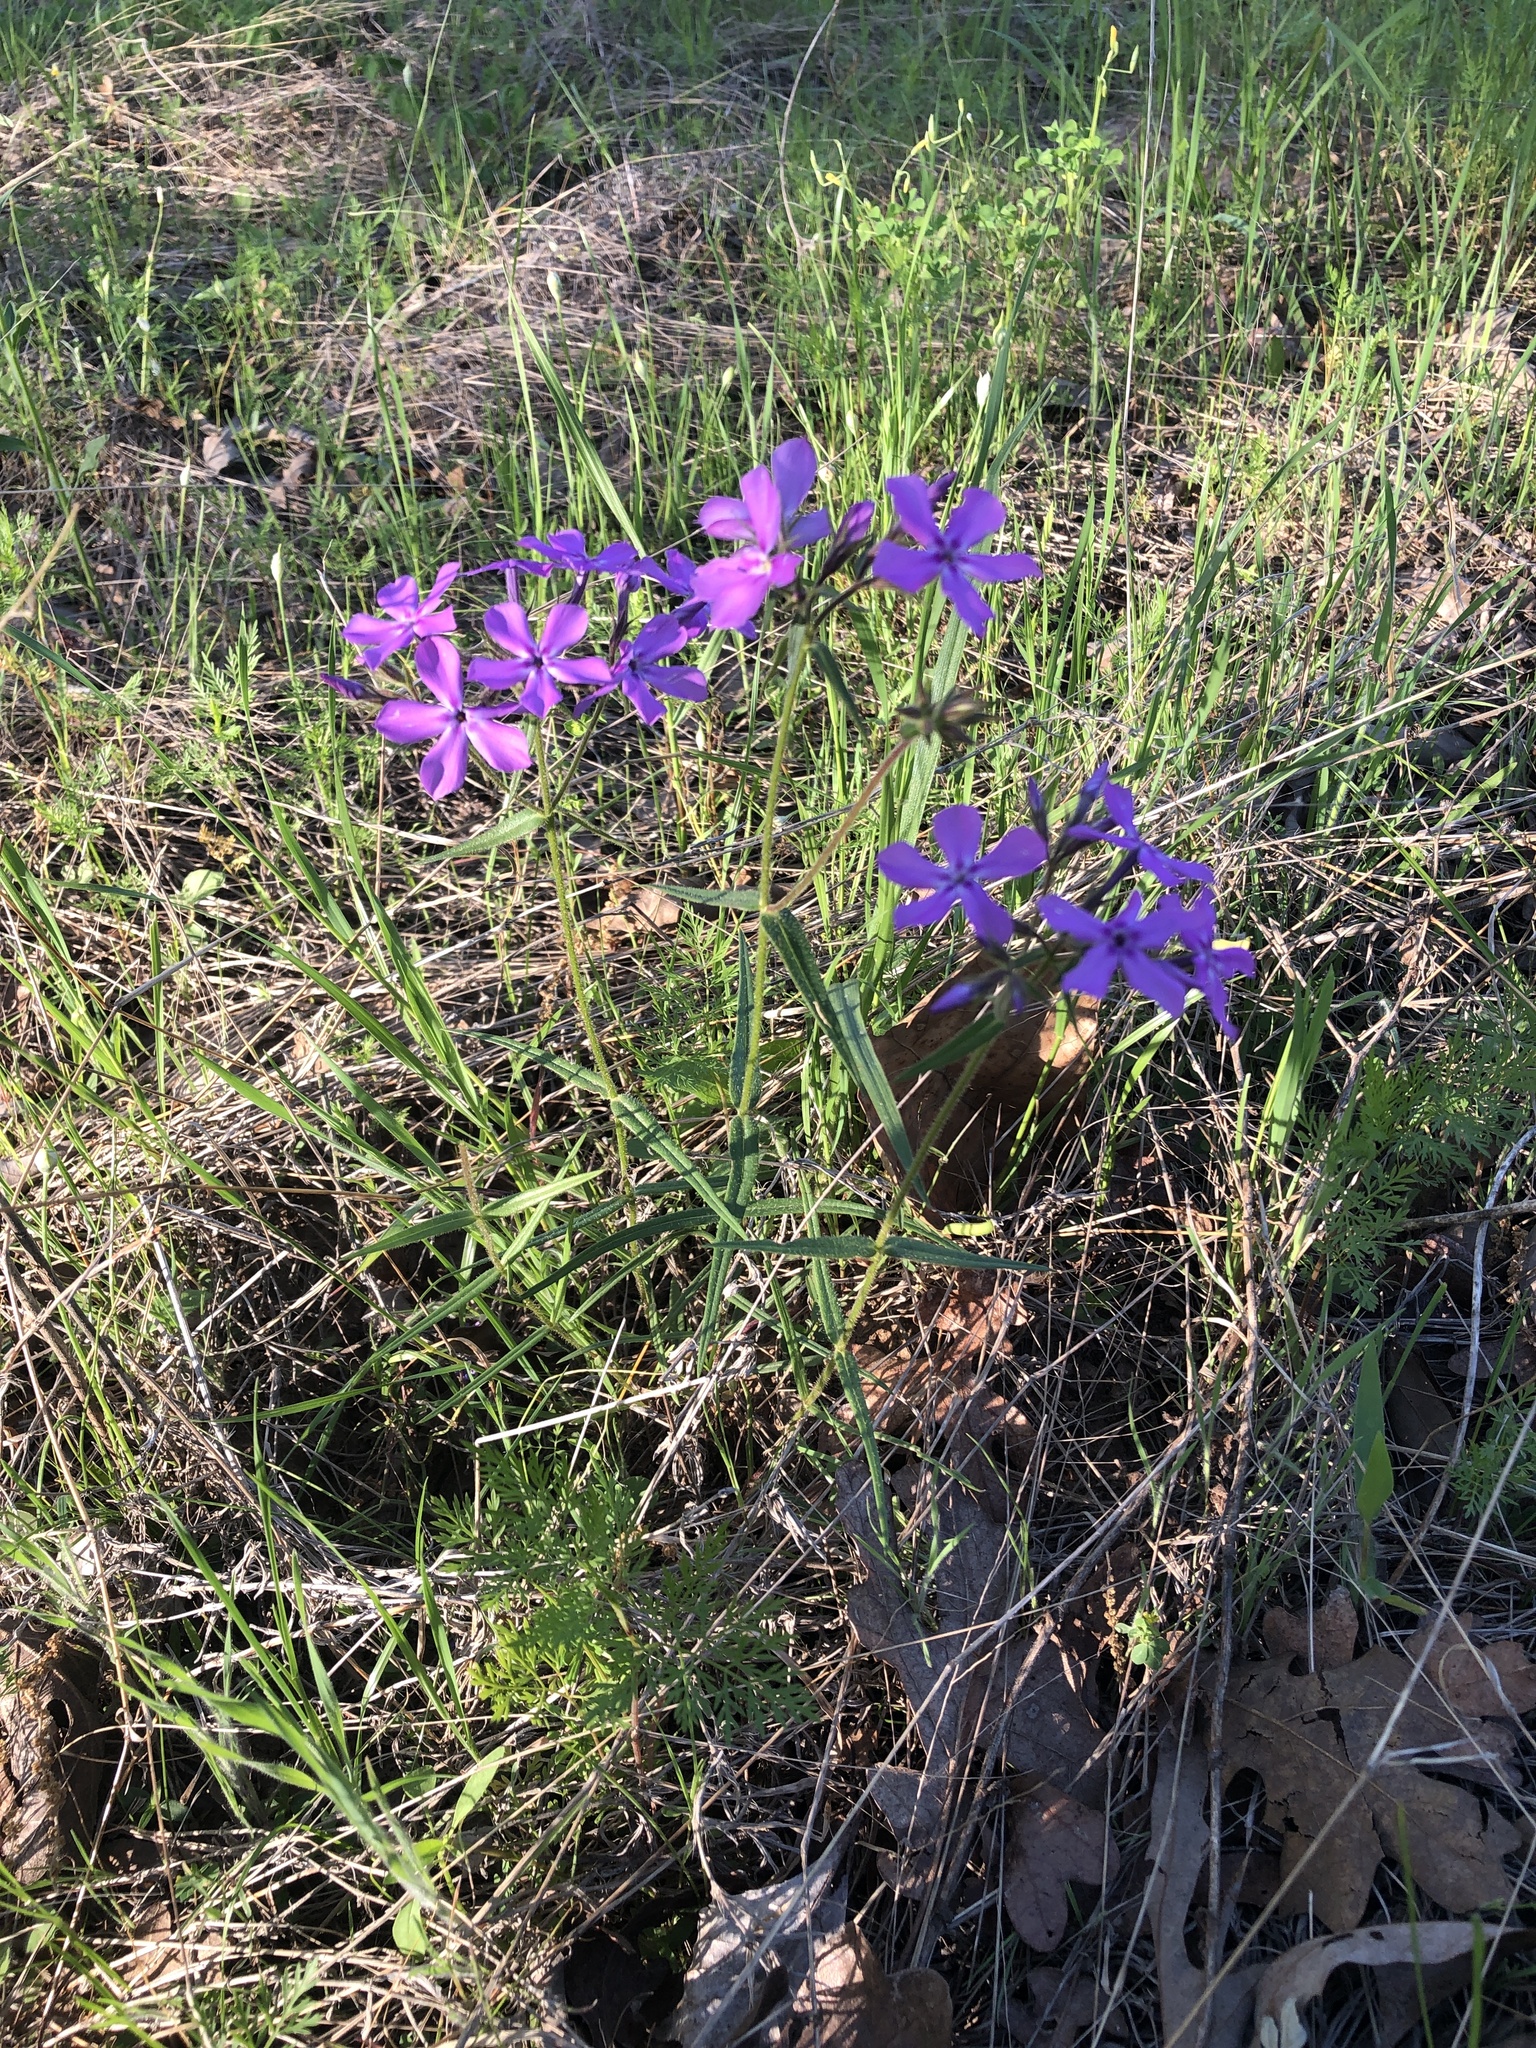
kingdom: Plantae
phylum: Tracheophyta
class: Magnoliopsida
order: Ericales
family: Polemoniaceae
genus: Phlox
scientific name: Phlox pilosa
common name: Prairie phlox
